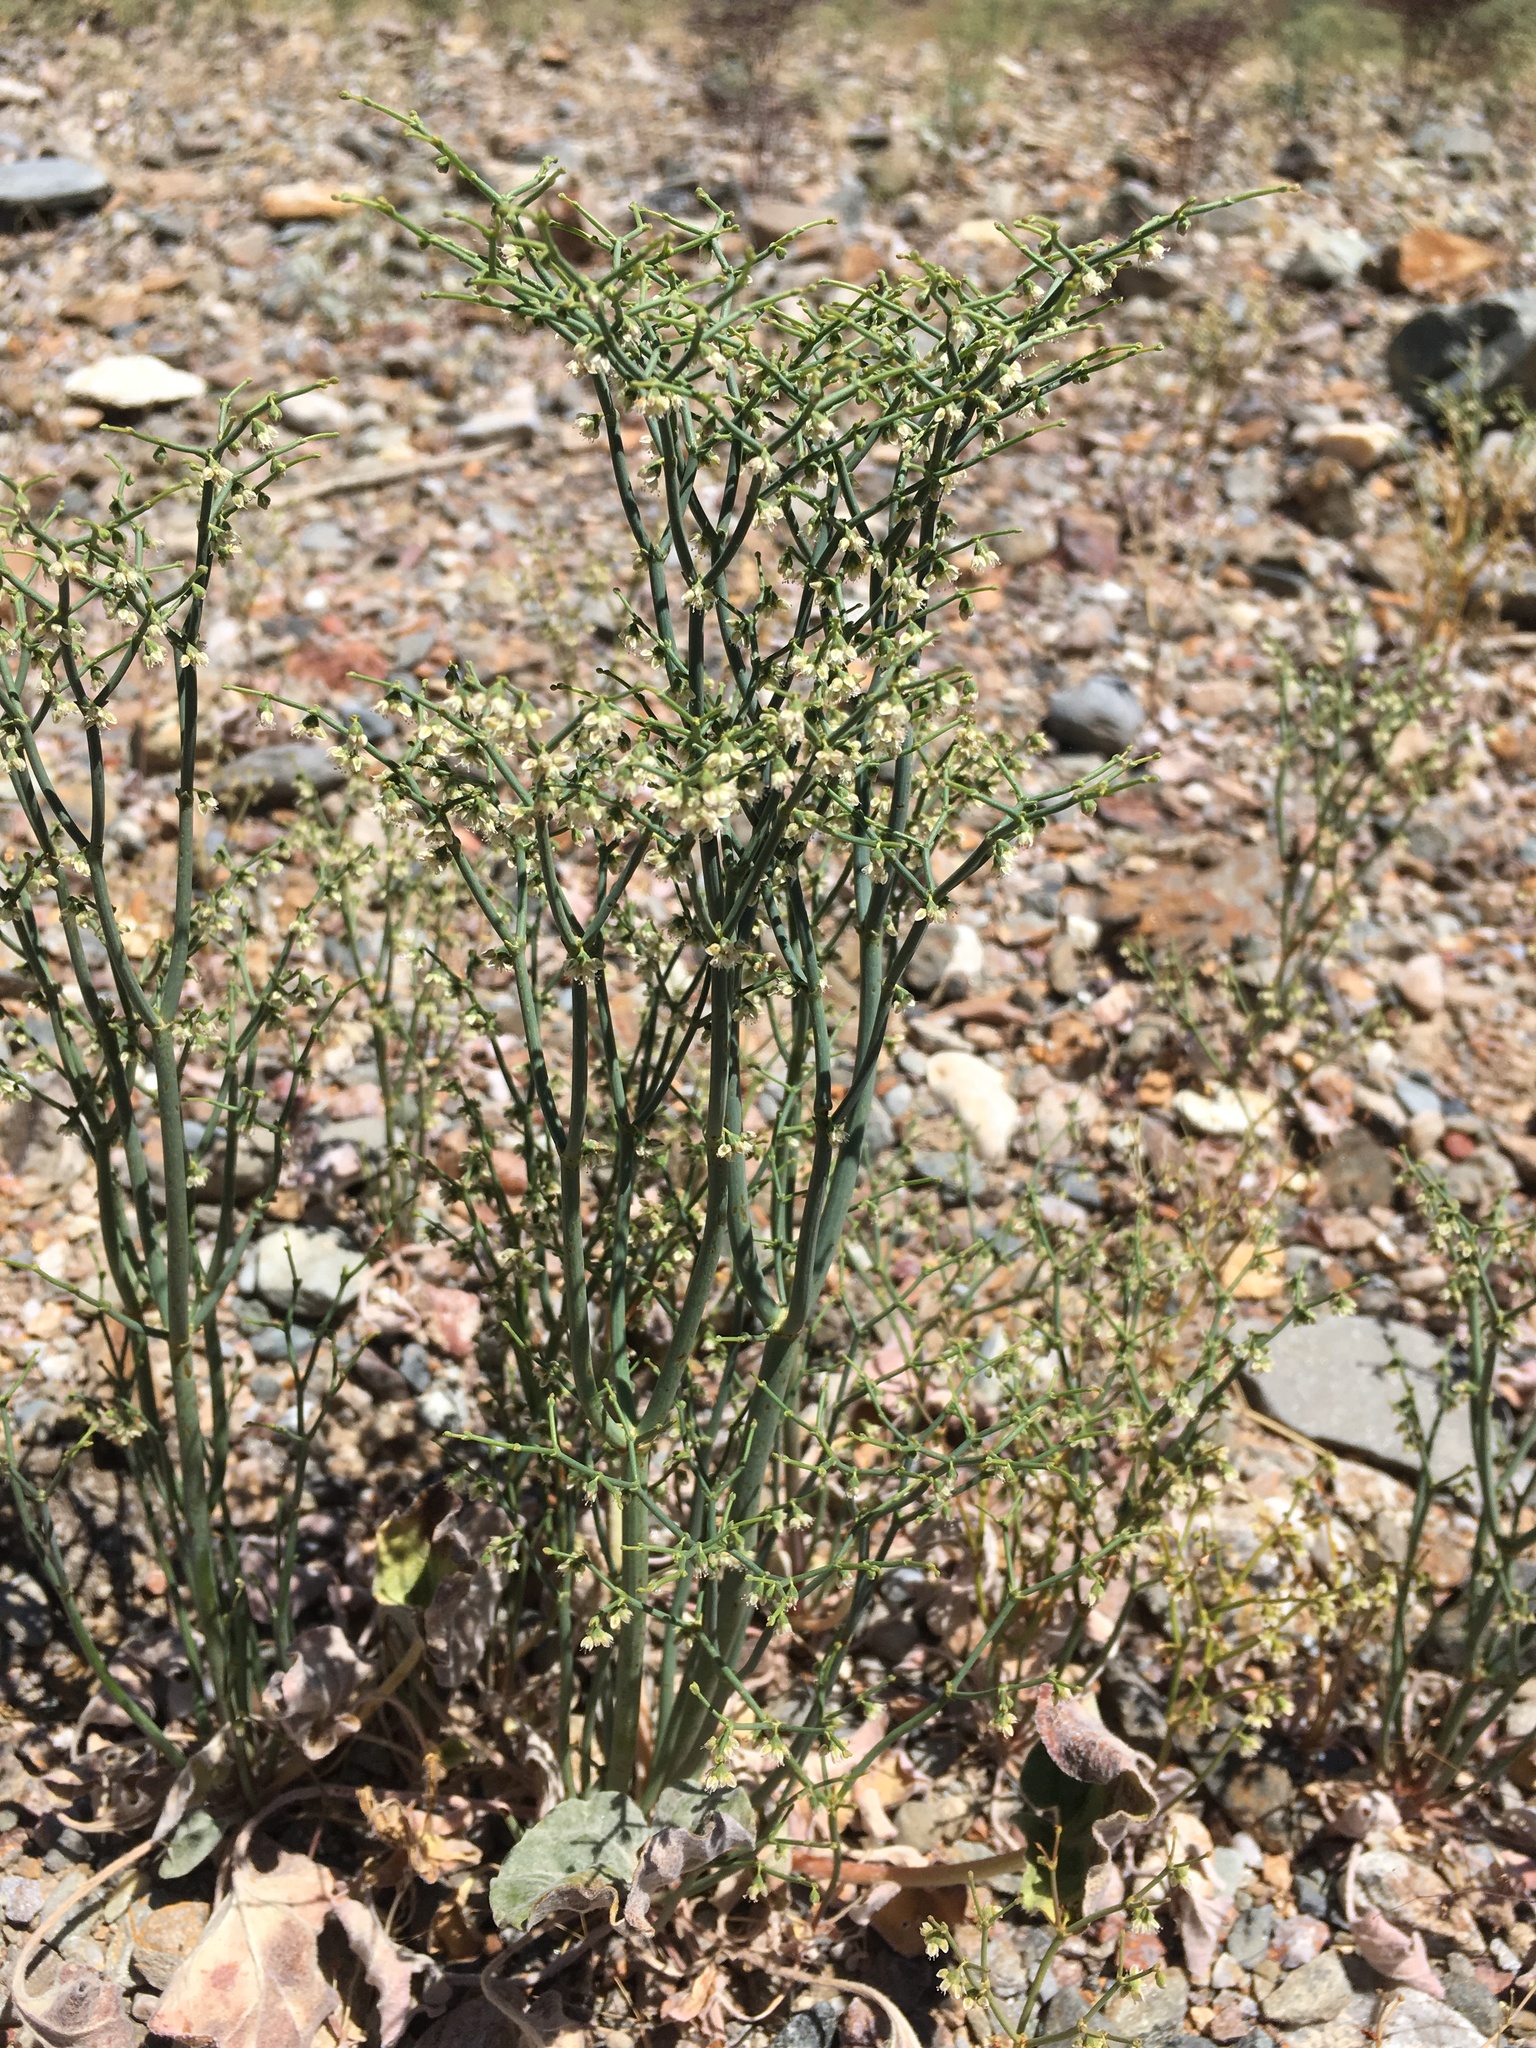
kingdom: Plantae
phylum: Tracheophyta
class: Magnoliopsida
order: Caryophyllales
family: Polygonaceae
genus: Eriogonum
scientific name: Eriogonum rixfordii
